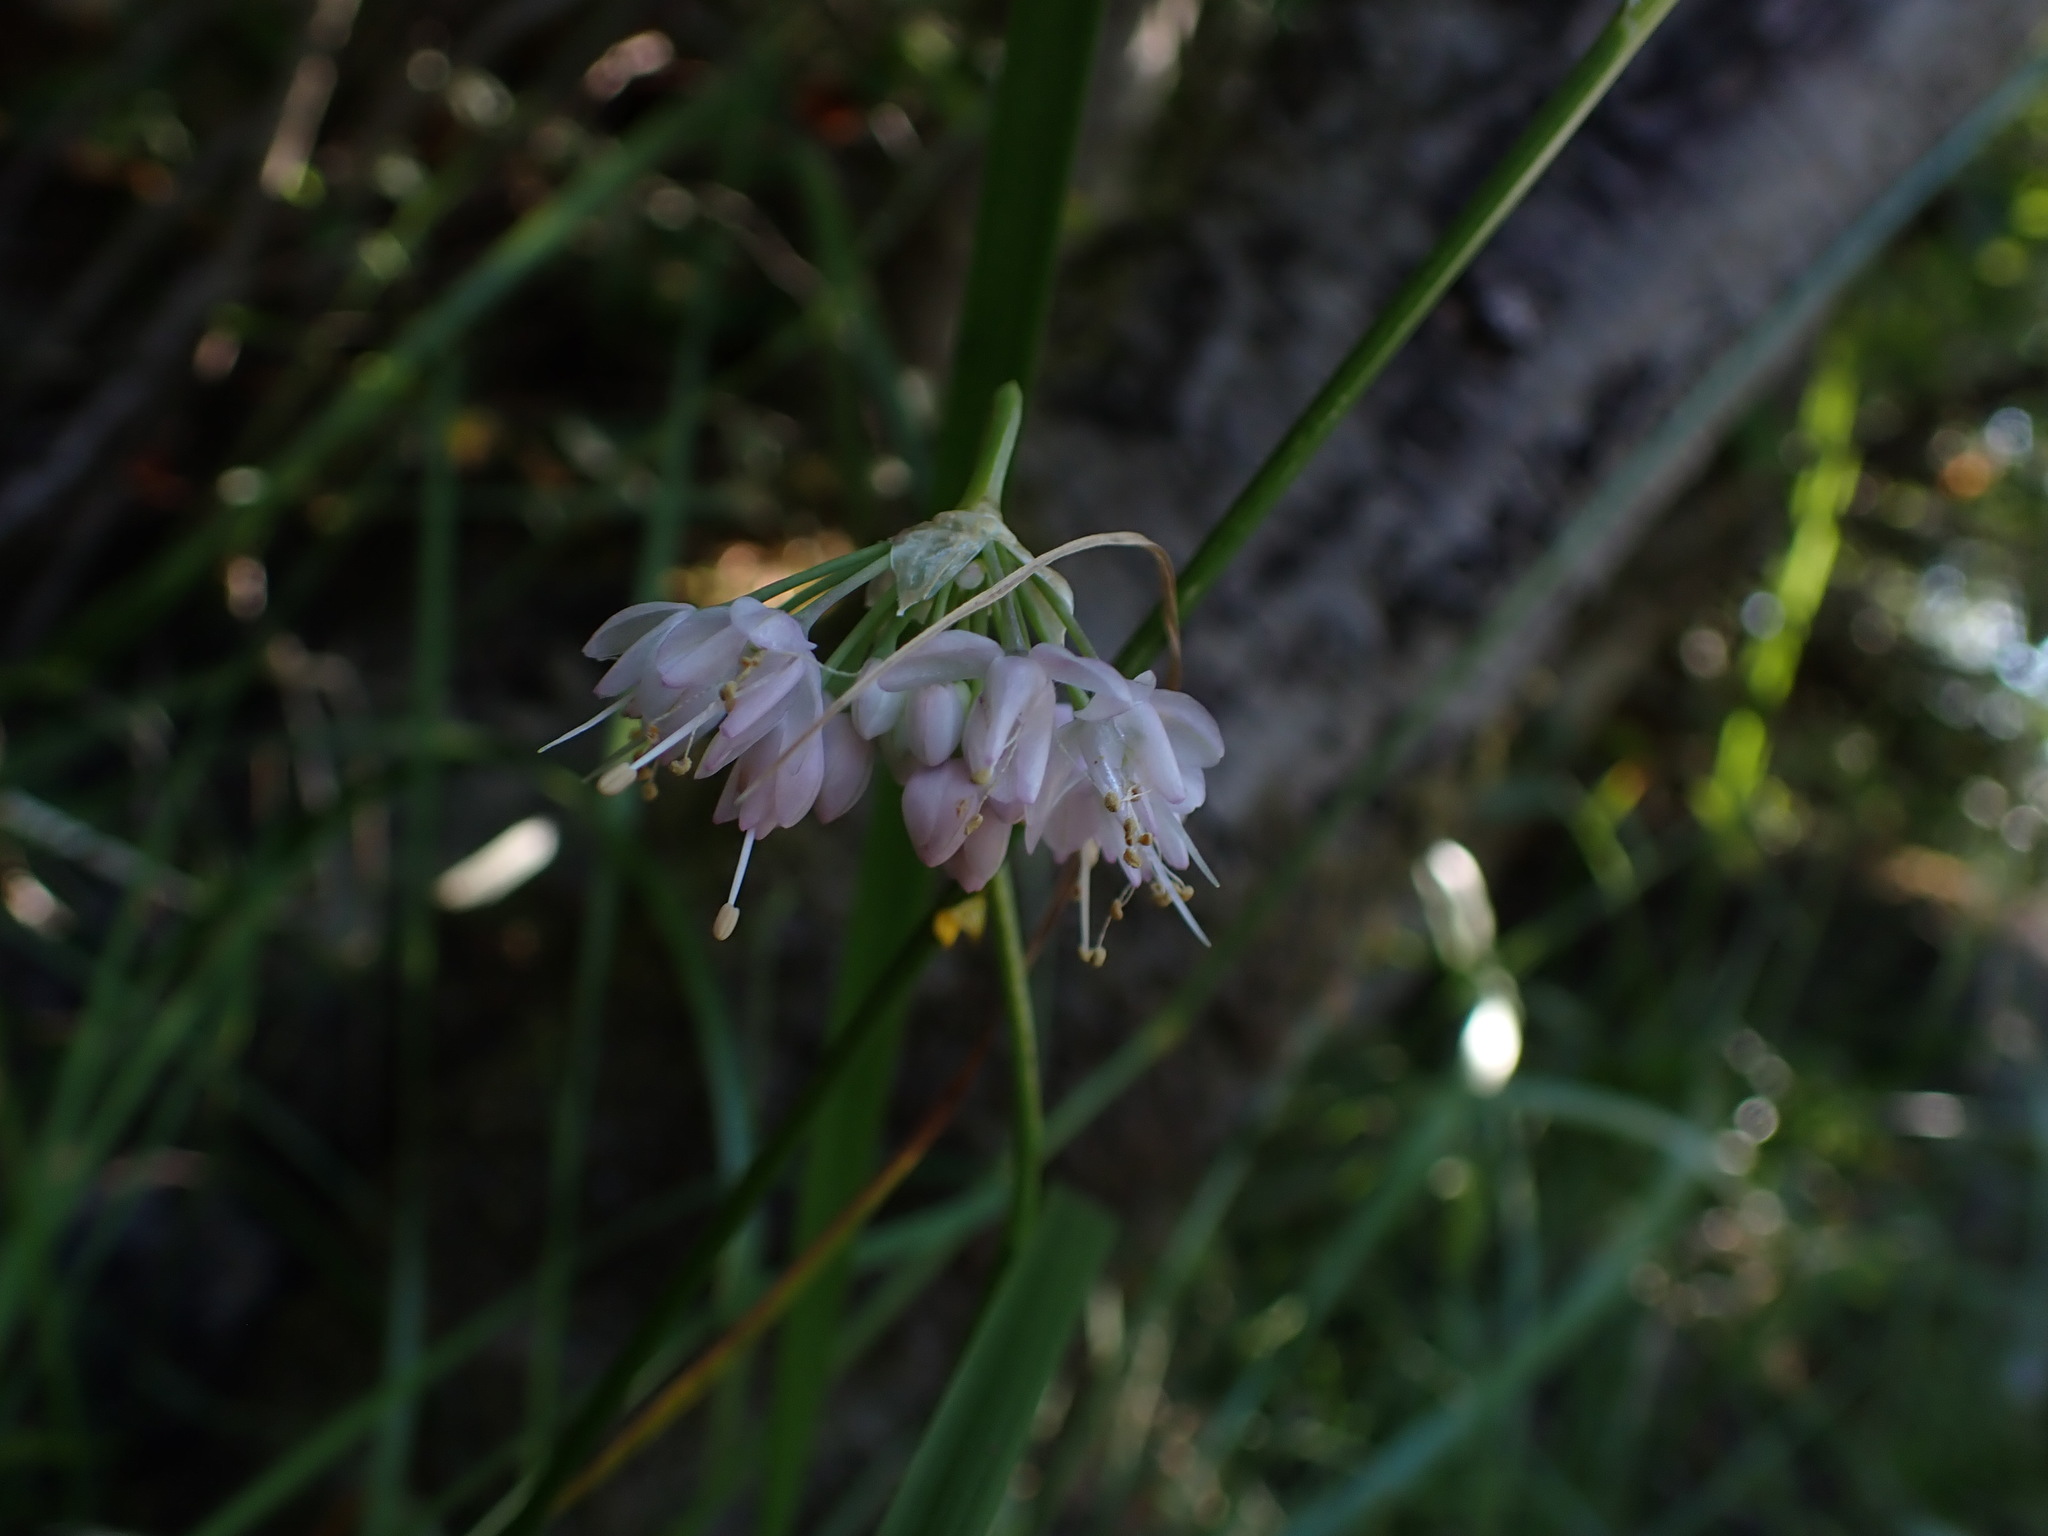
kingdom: Plantae
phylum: Tracheophyta
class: Liliopsida
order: Asparagales
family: Amaryllidaceae
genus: Allium
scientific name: Allium cernuum
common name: Nodding onion
